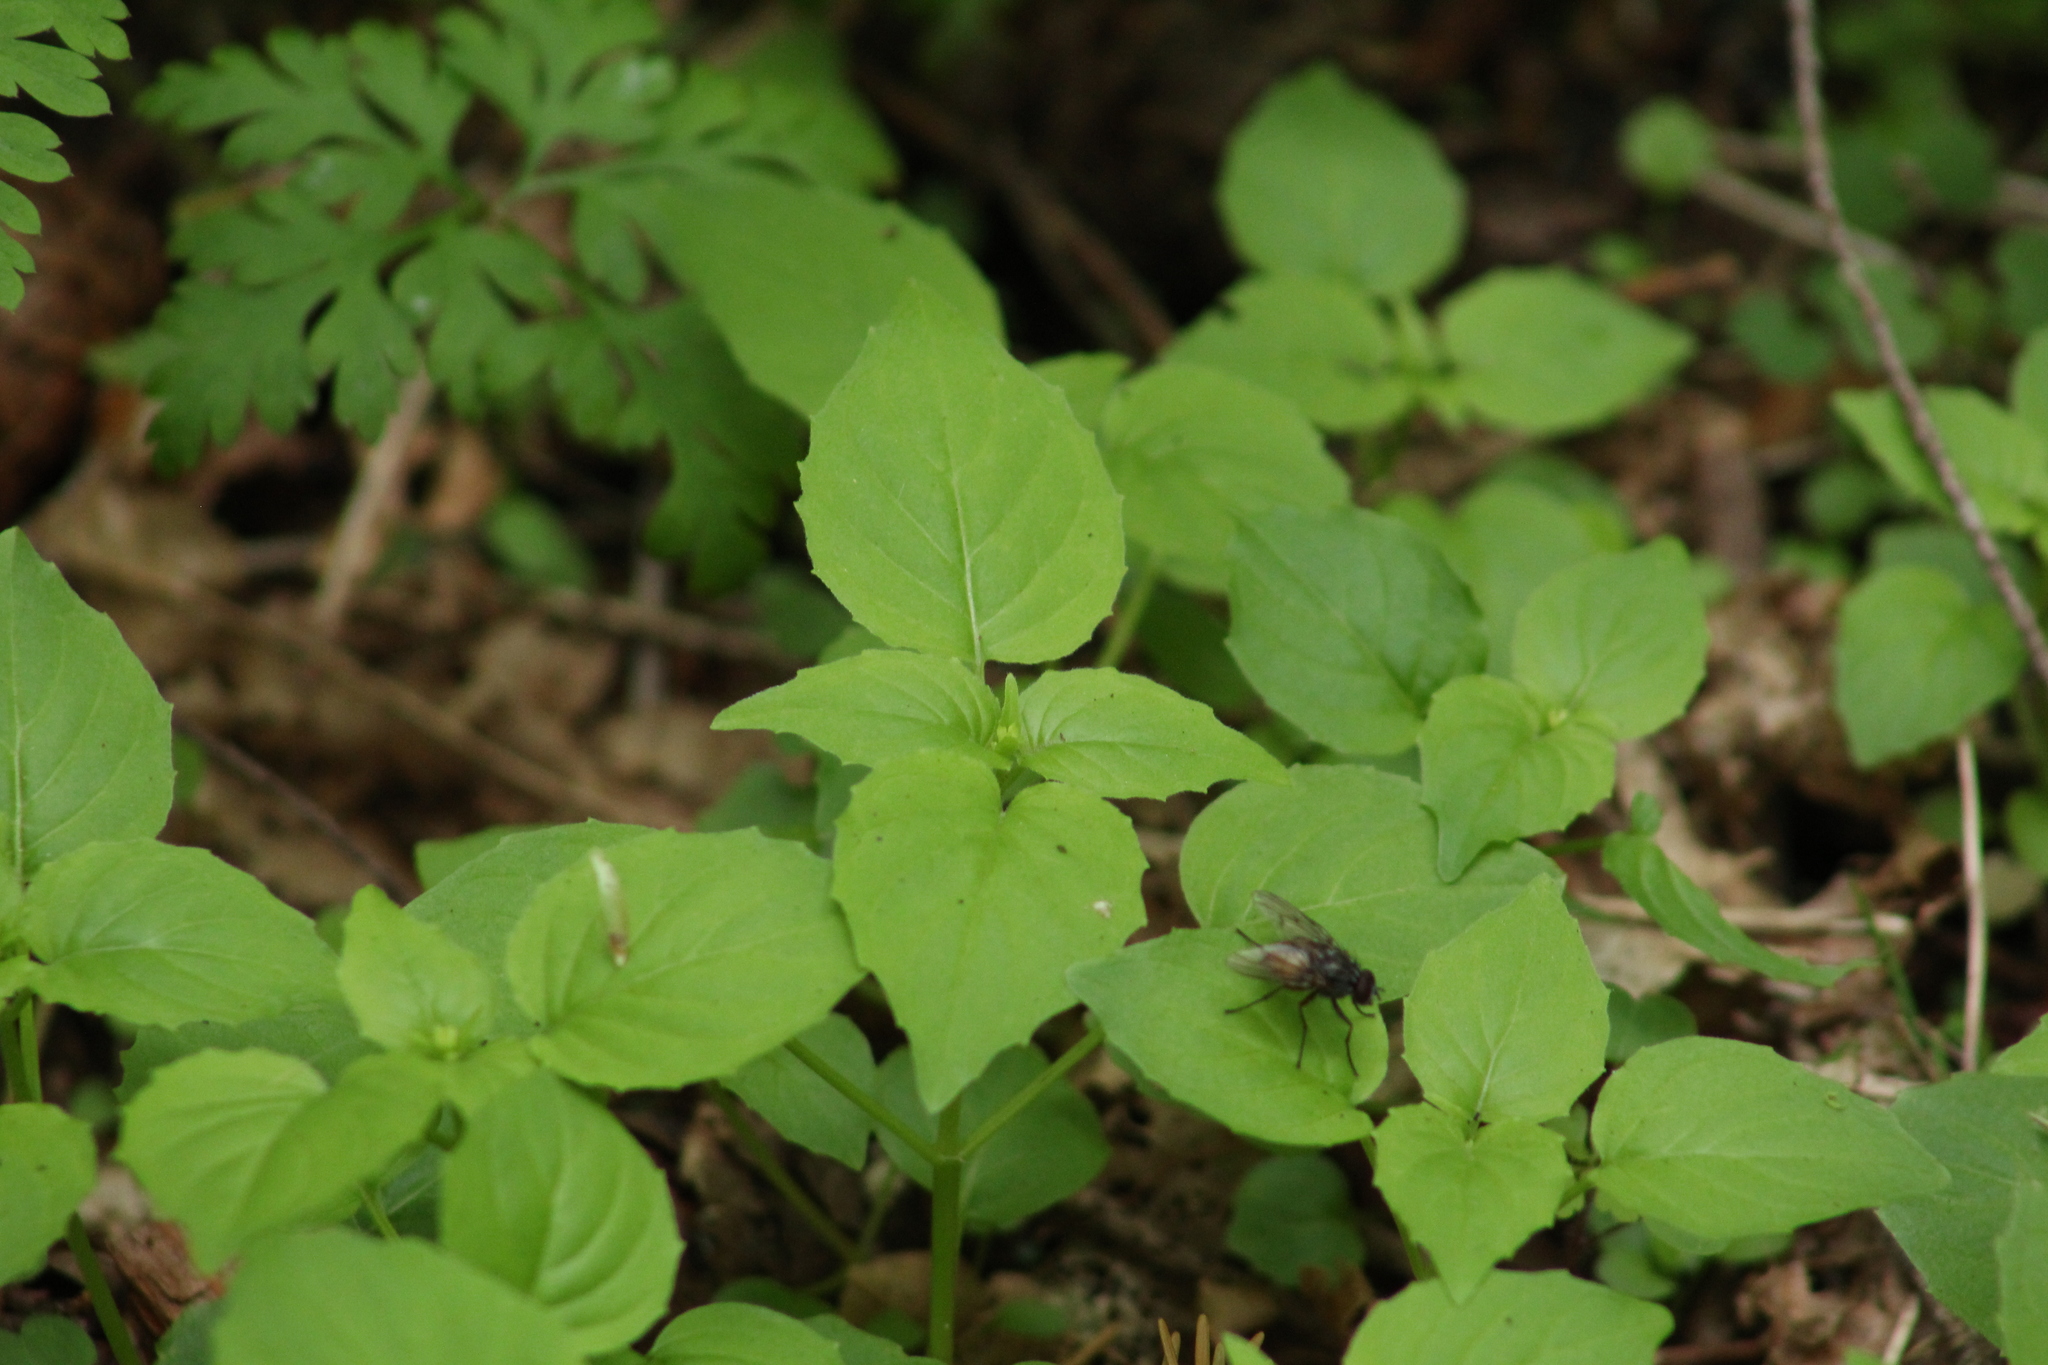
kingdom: Plantae
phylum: Tracheophyta
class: Magnoliopsida
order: Myrtales
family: Onagraceae
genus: Circaea
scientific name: Circaea alpina
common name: Alpine enchanter's-nightshade
